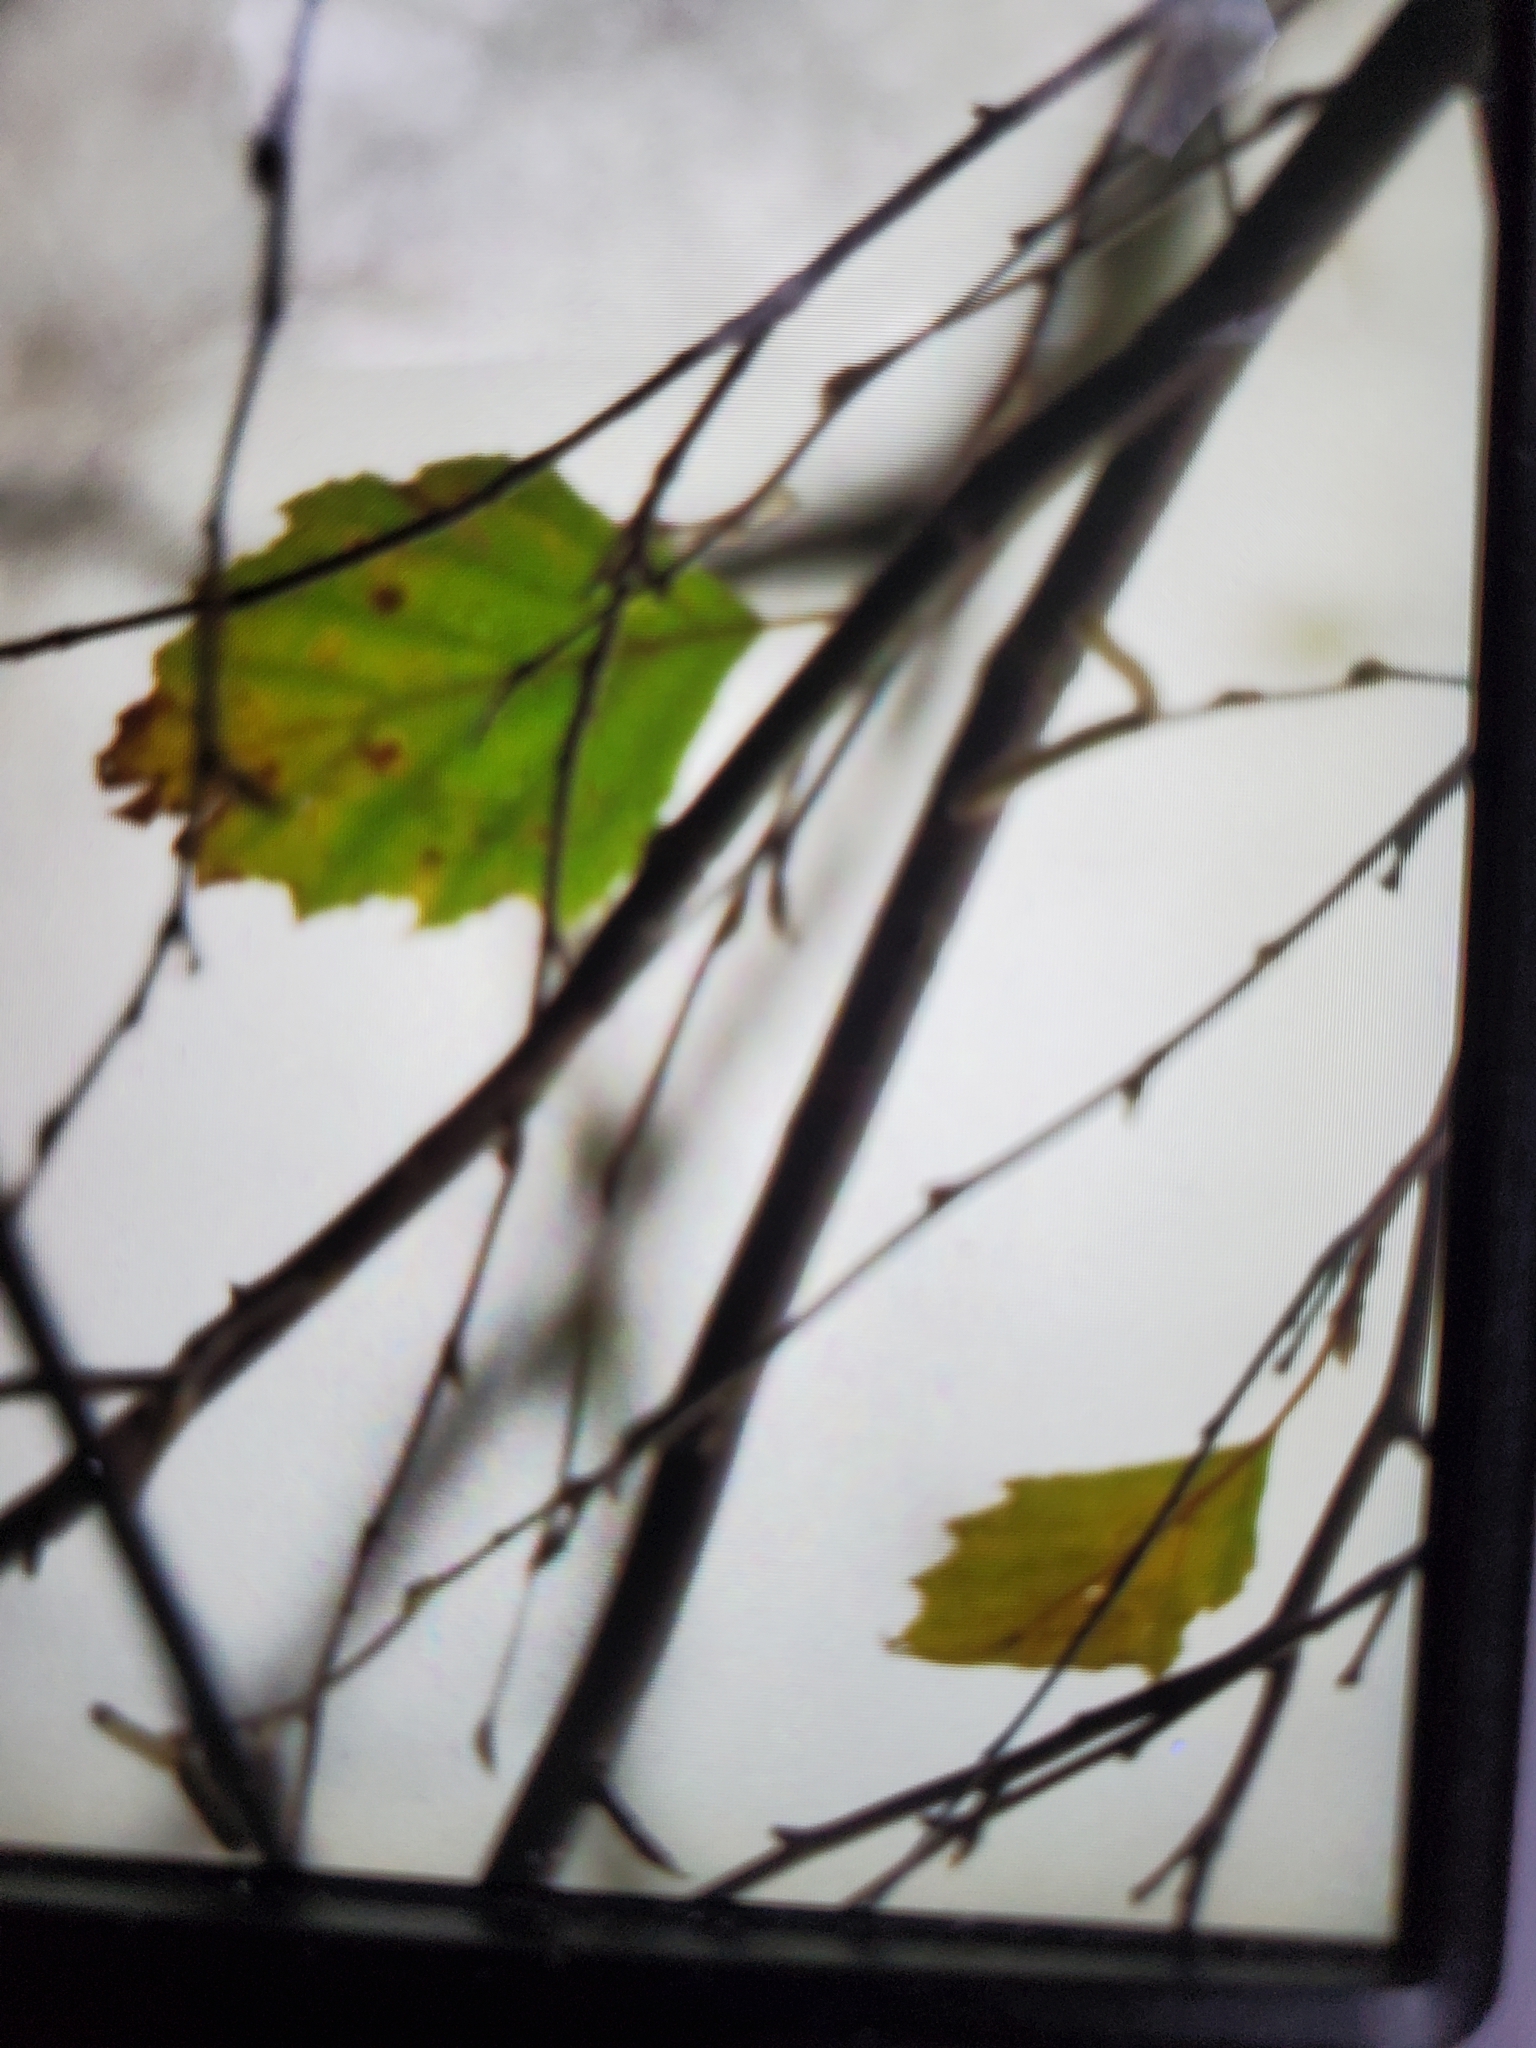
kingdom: Plantae
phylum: Tracheophyta
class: Magnoliopsida
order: Fagales
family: Betulaceae
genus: Betula
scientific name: Betula nigra
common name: Black birch
